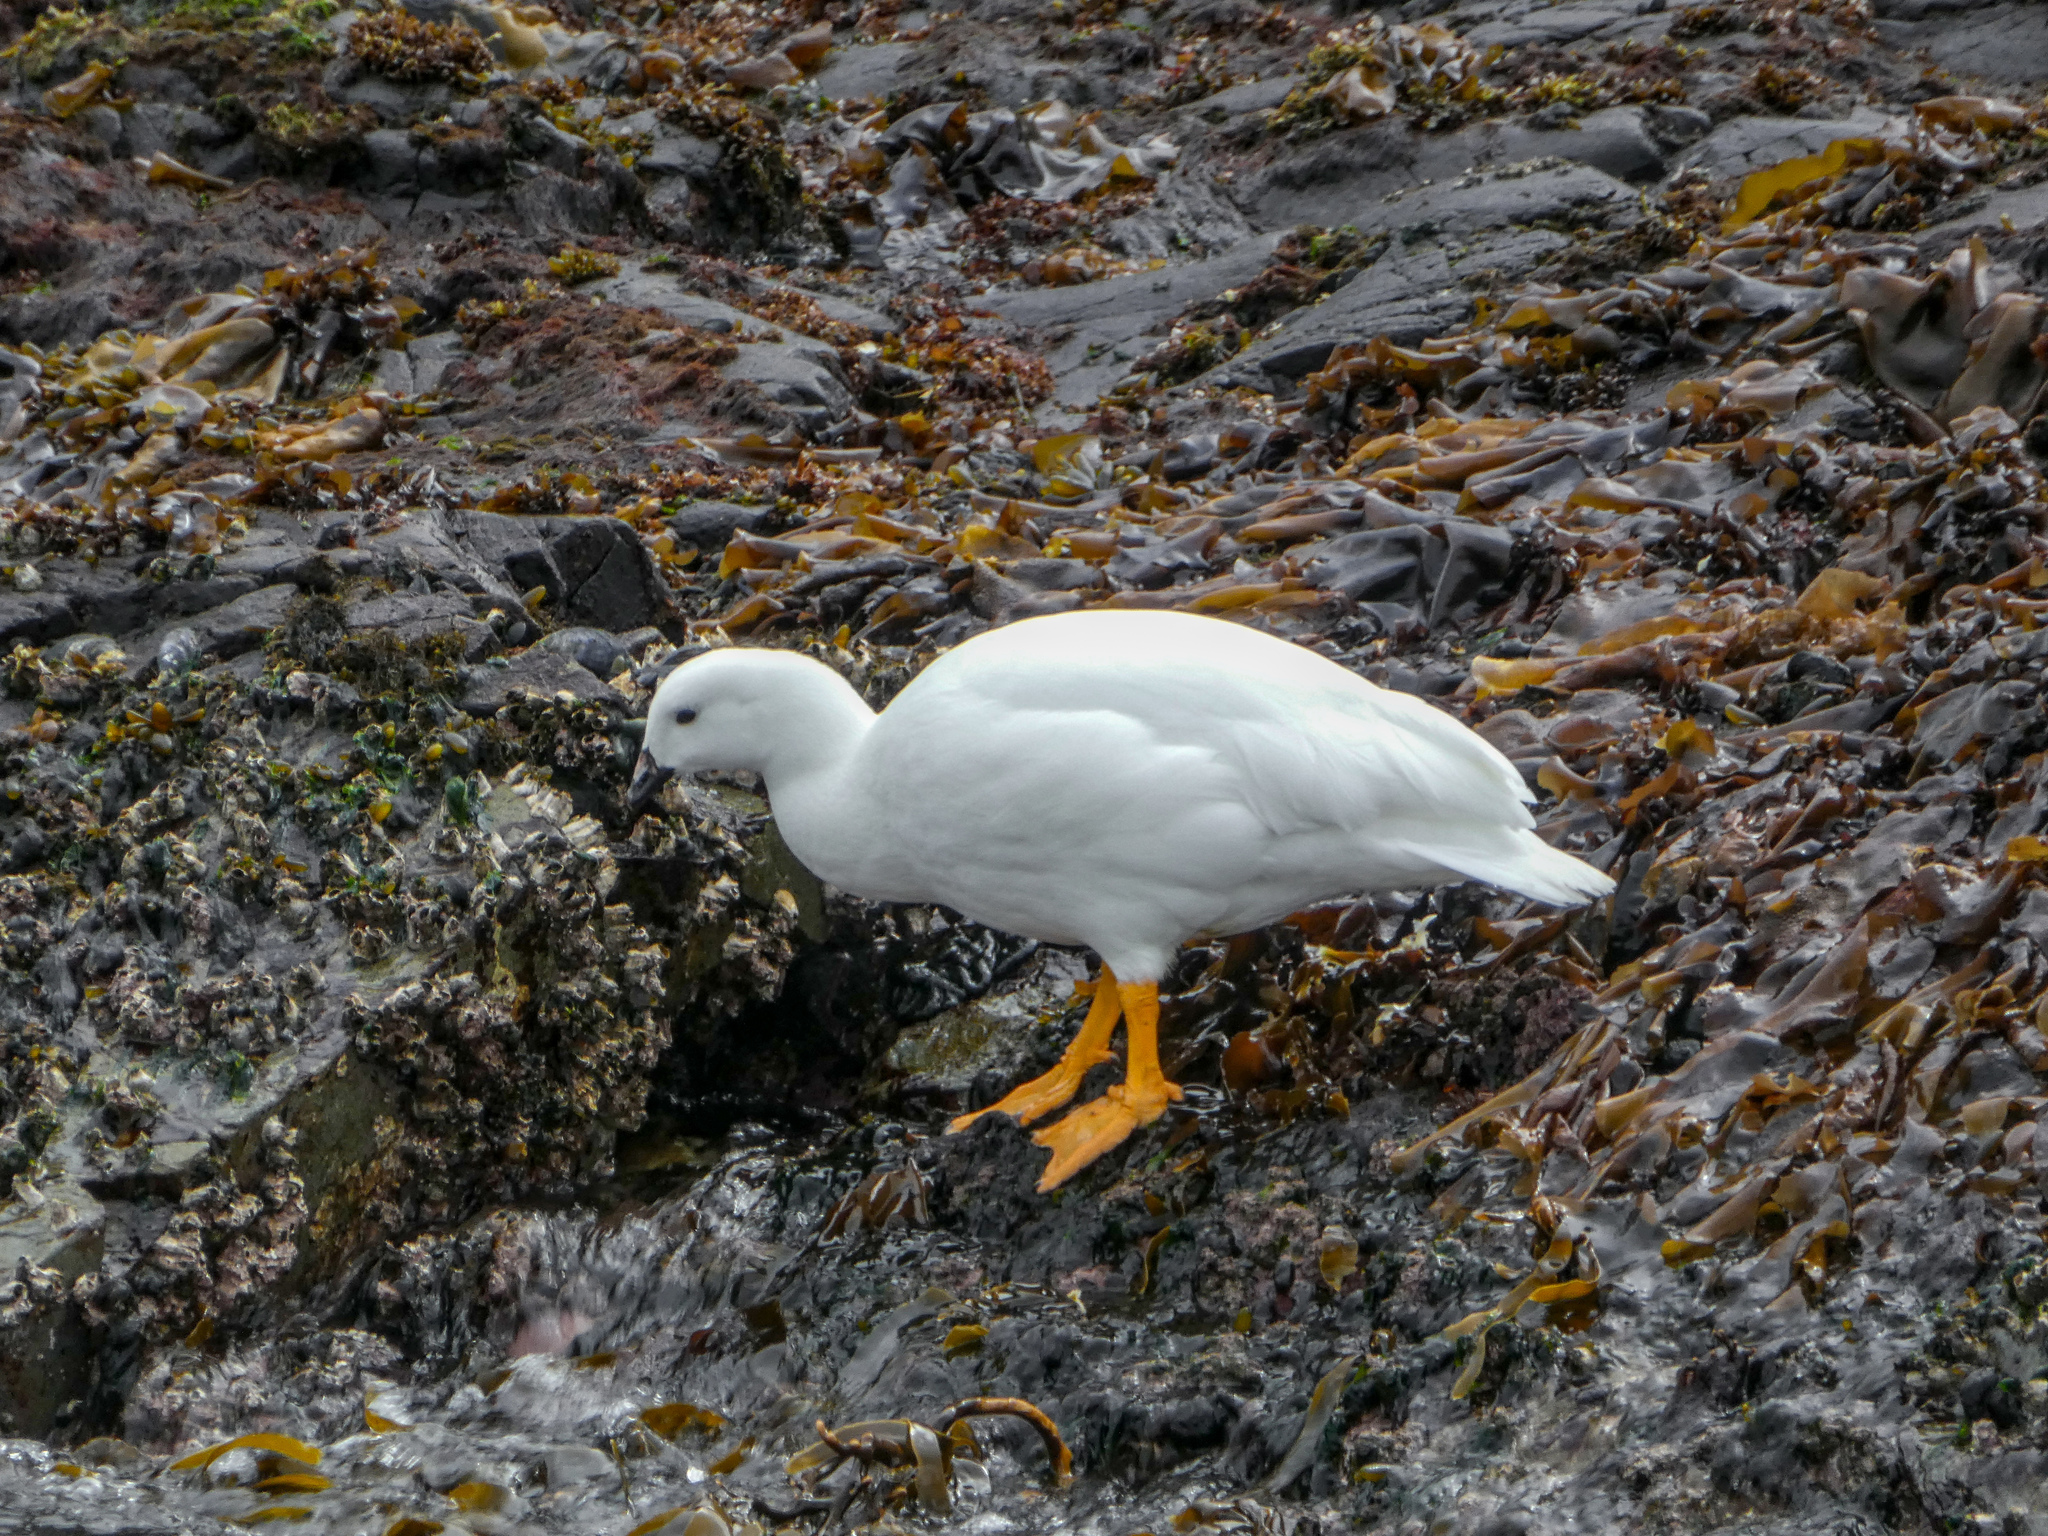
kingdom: Animalia
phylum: Chordata
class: Aves
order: Anseriformes
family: Anatidae
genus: Chloephaga
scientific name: Chloephaga hybrida
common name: Kelp goose
